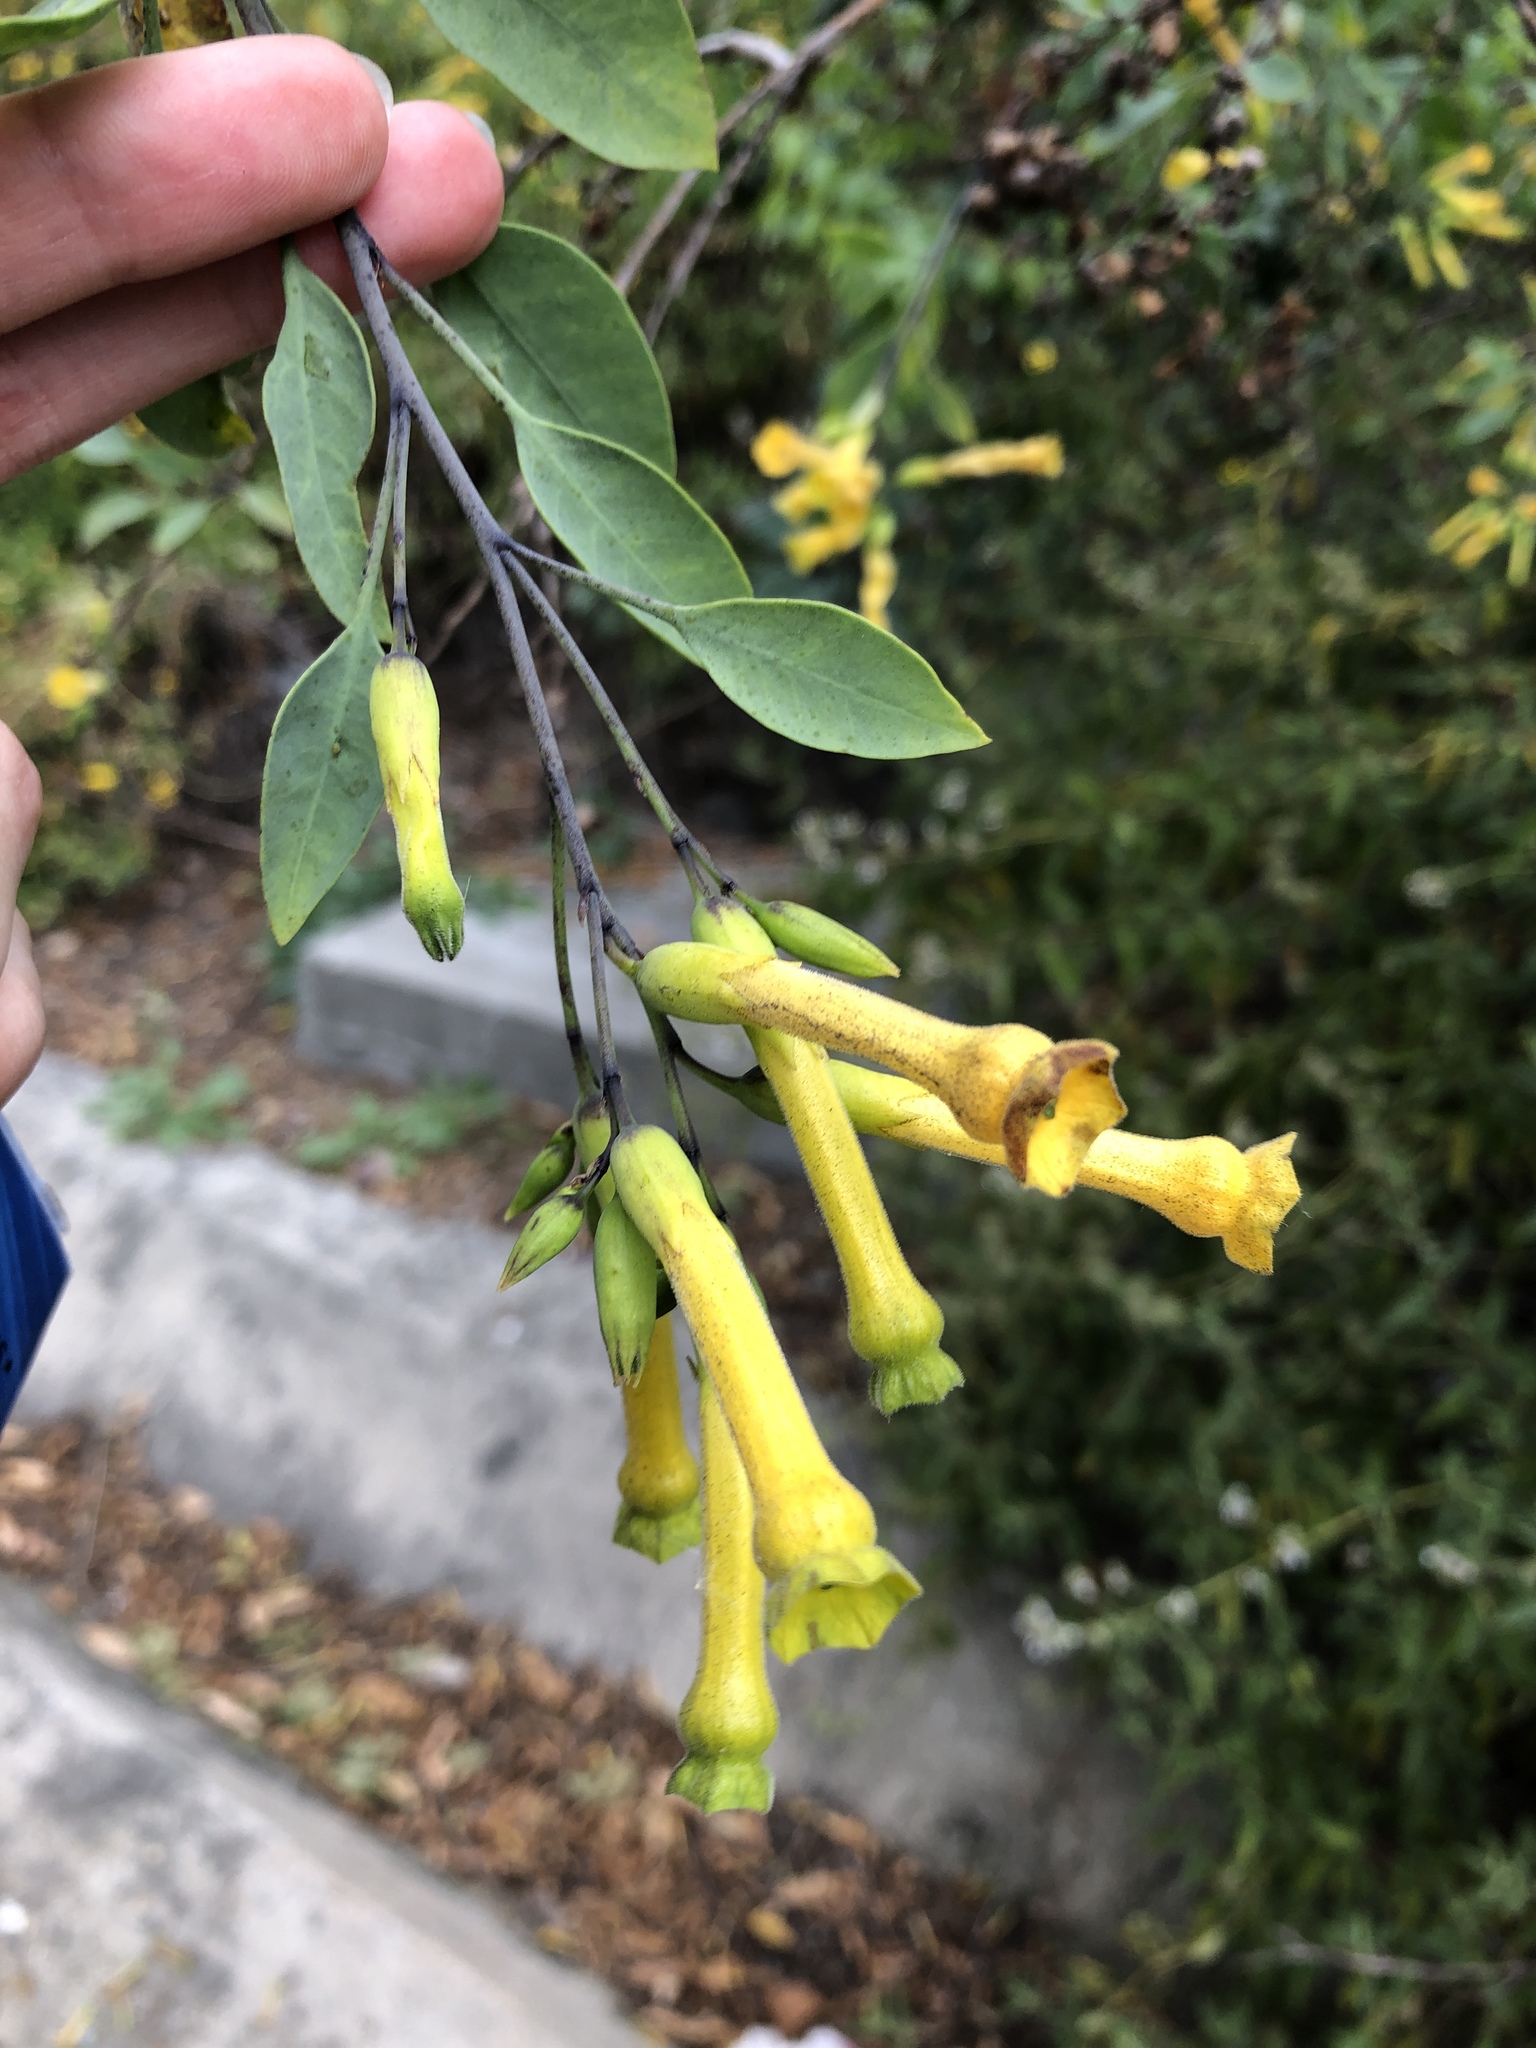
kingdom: Plantae
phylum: Tracheophyta
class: Magnoliopsida
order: Solanales
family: Solanaceae
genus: Nicotiana
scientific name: Nicotiana glauca
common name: Tree tobacco
